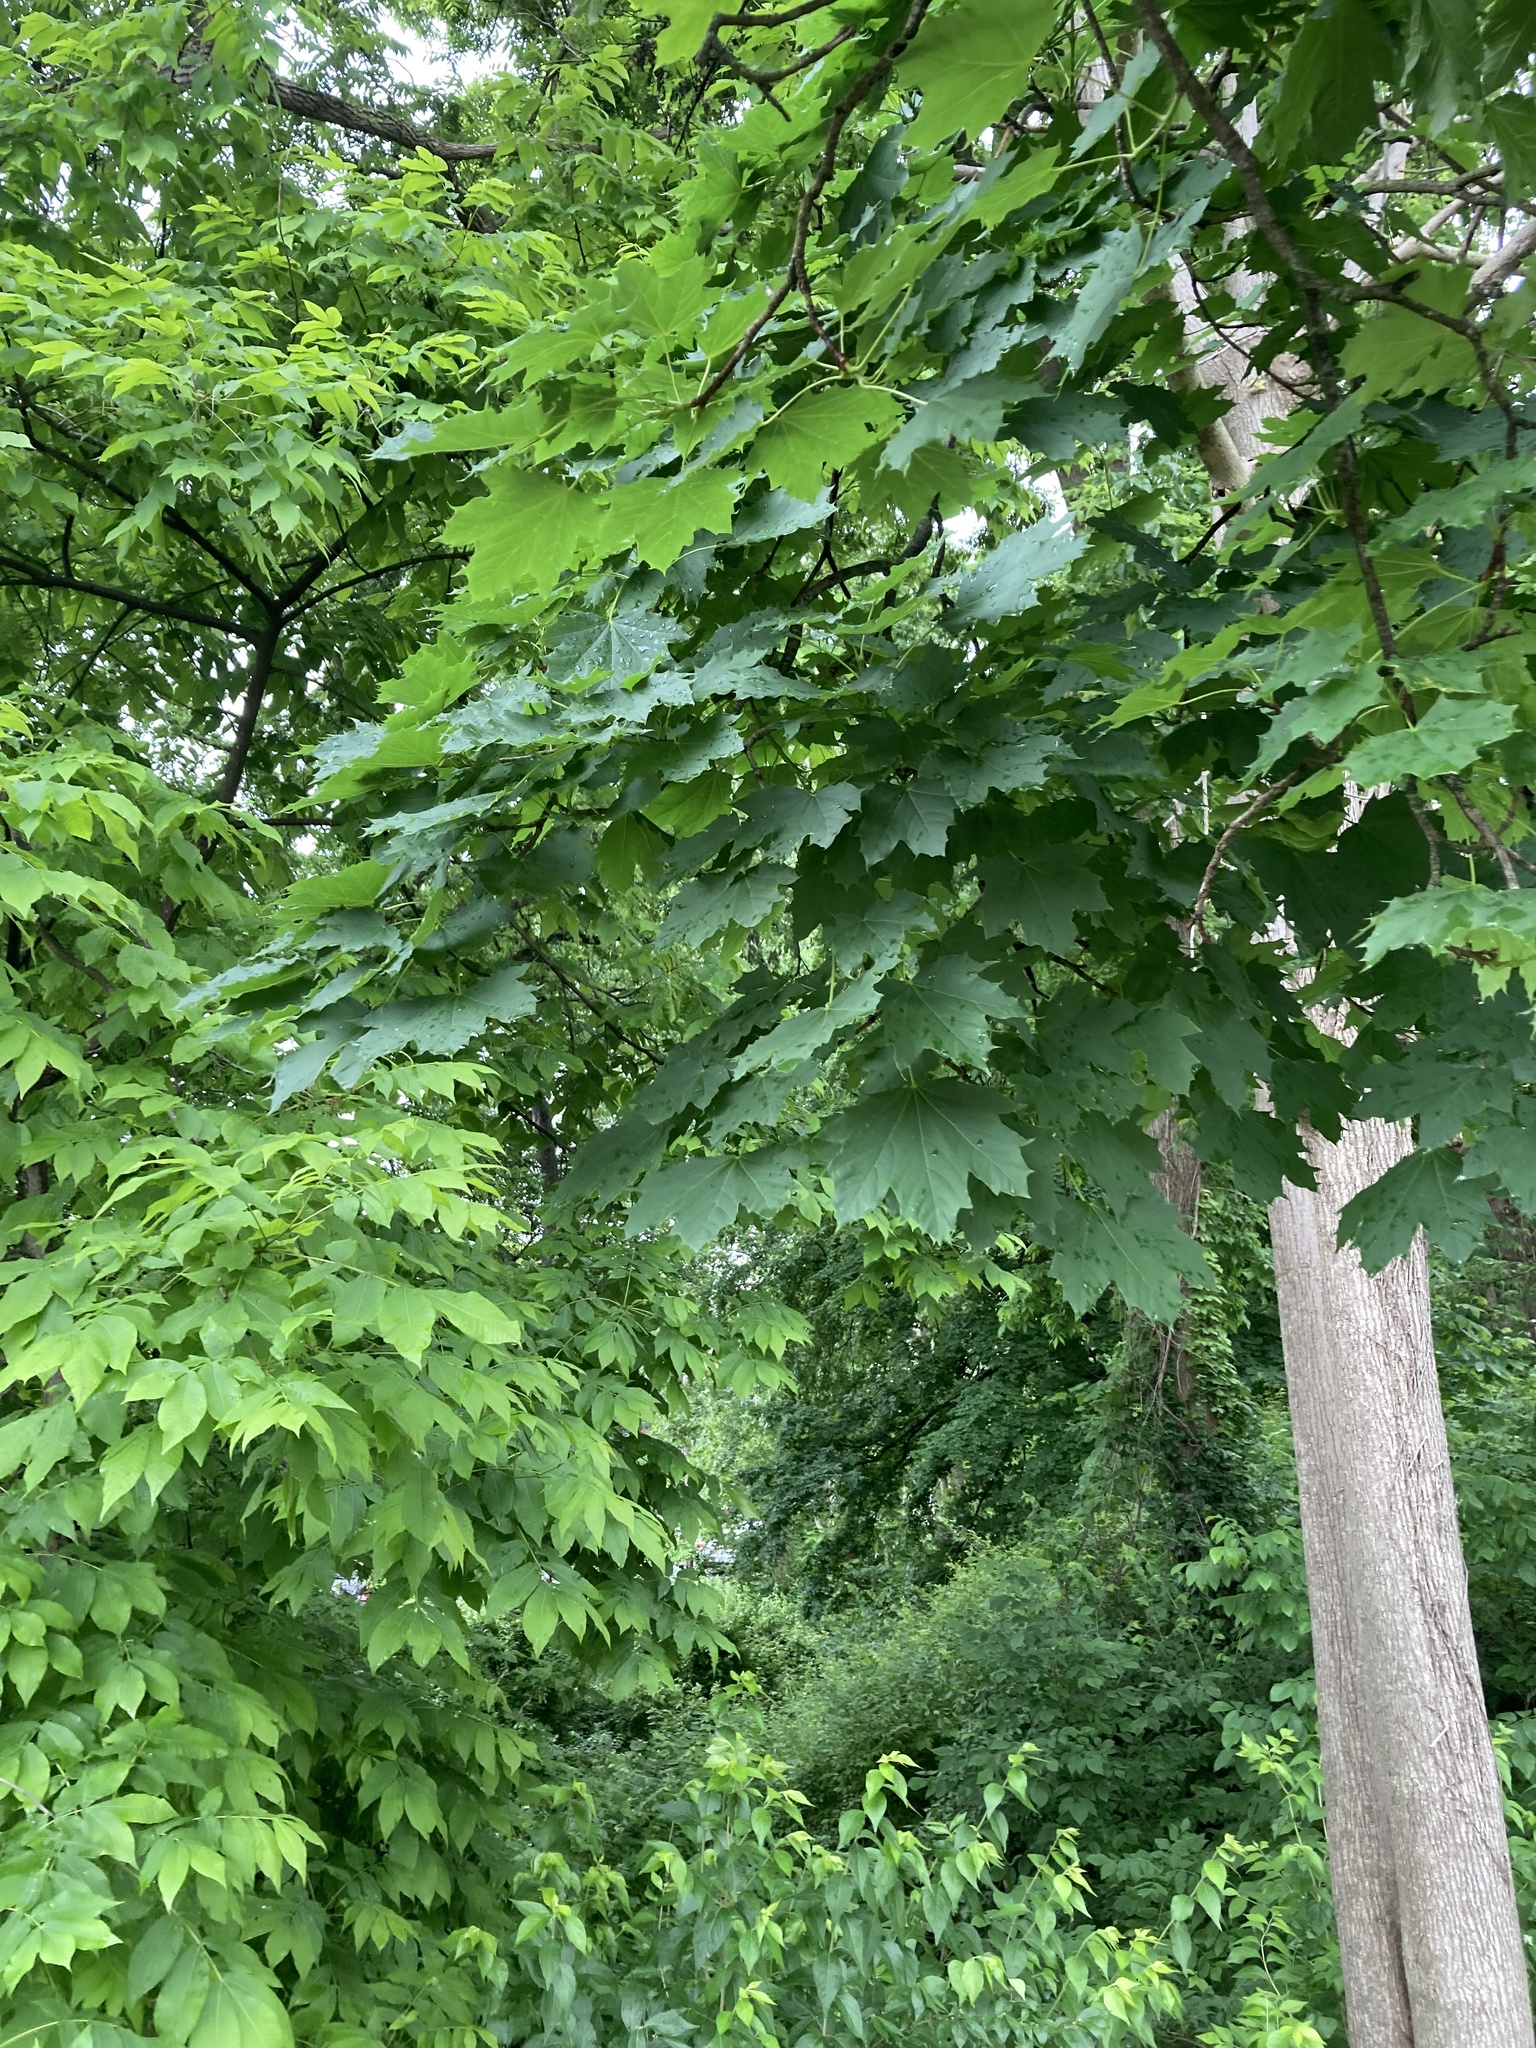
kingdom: Plantae
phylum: Tracheophyta
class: Magnoliopsida
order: Sapindales
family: Sapindaceae
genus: Acer
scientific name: Acer platanoides
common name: Norway maple
